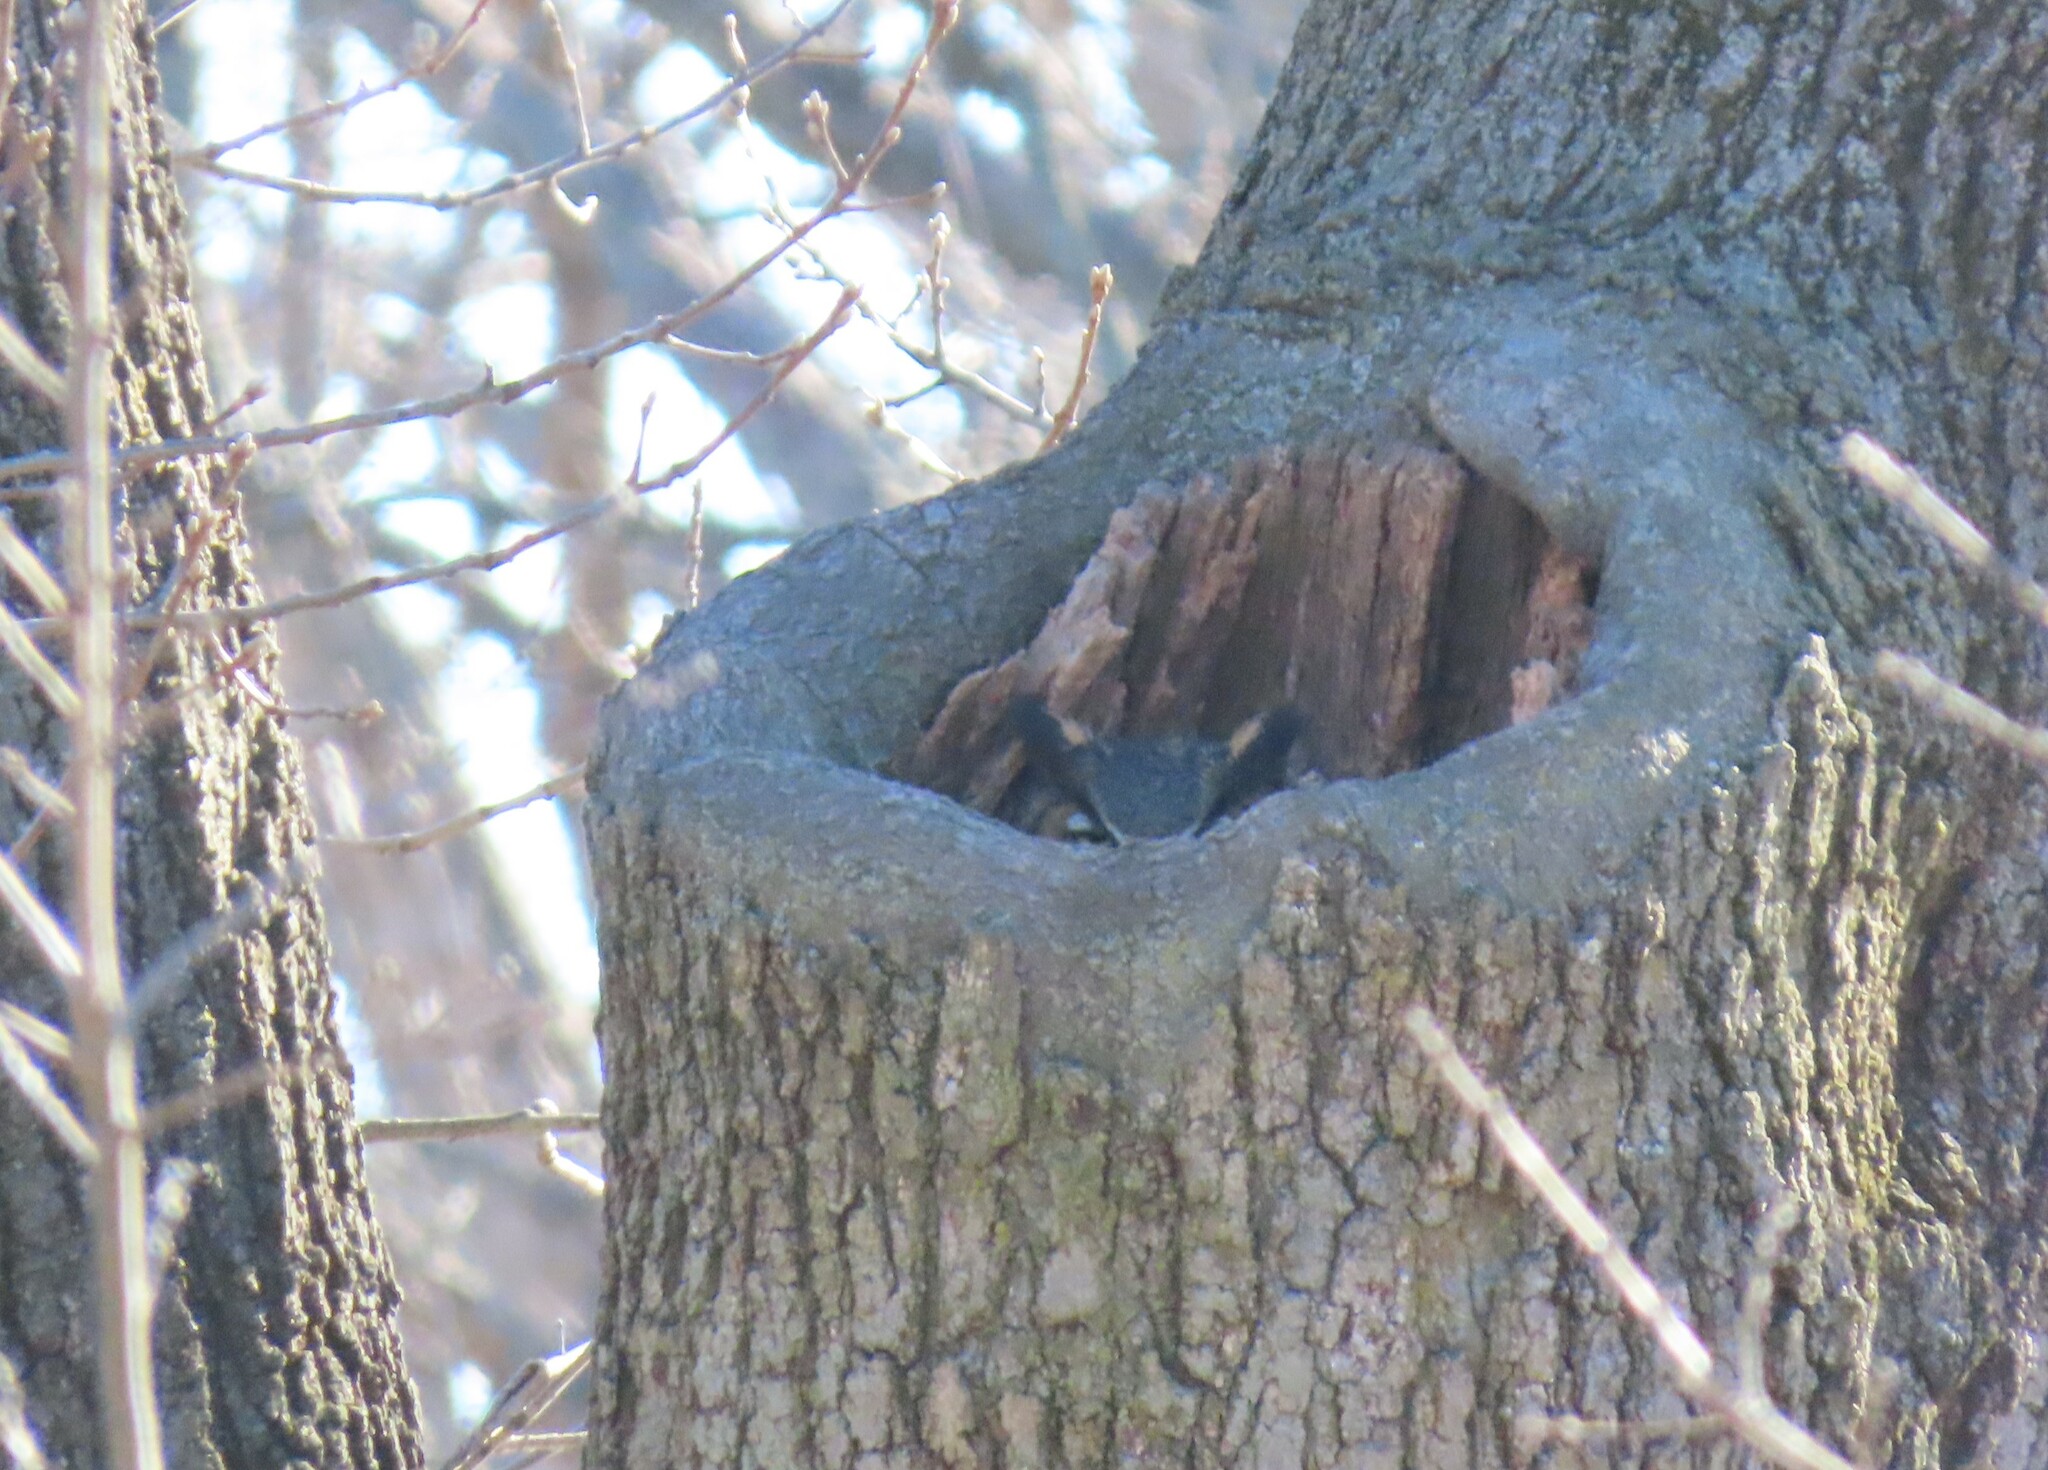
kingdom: Animalia
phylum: Chordata
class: Aves
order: Strigiformes
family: Strigidae
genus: Bubo
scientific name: Bubo virginianus
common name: Great horned owl
